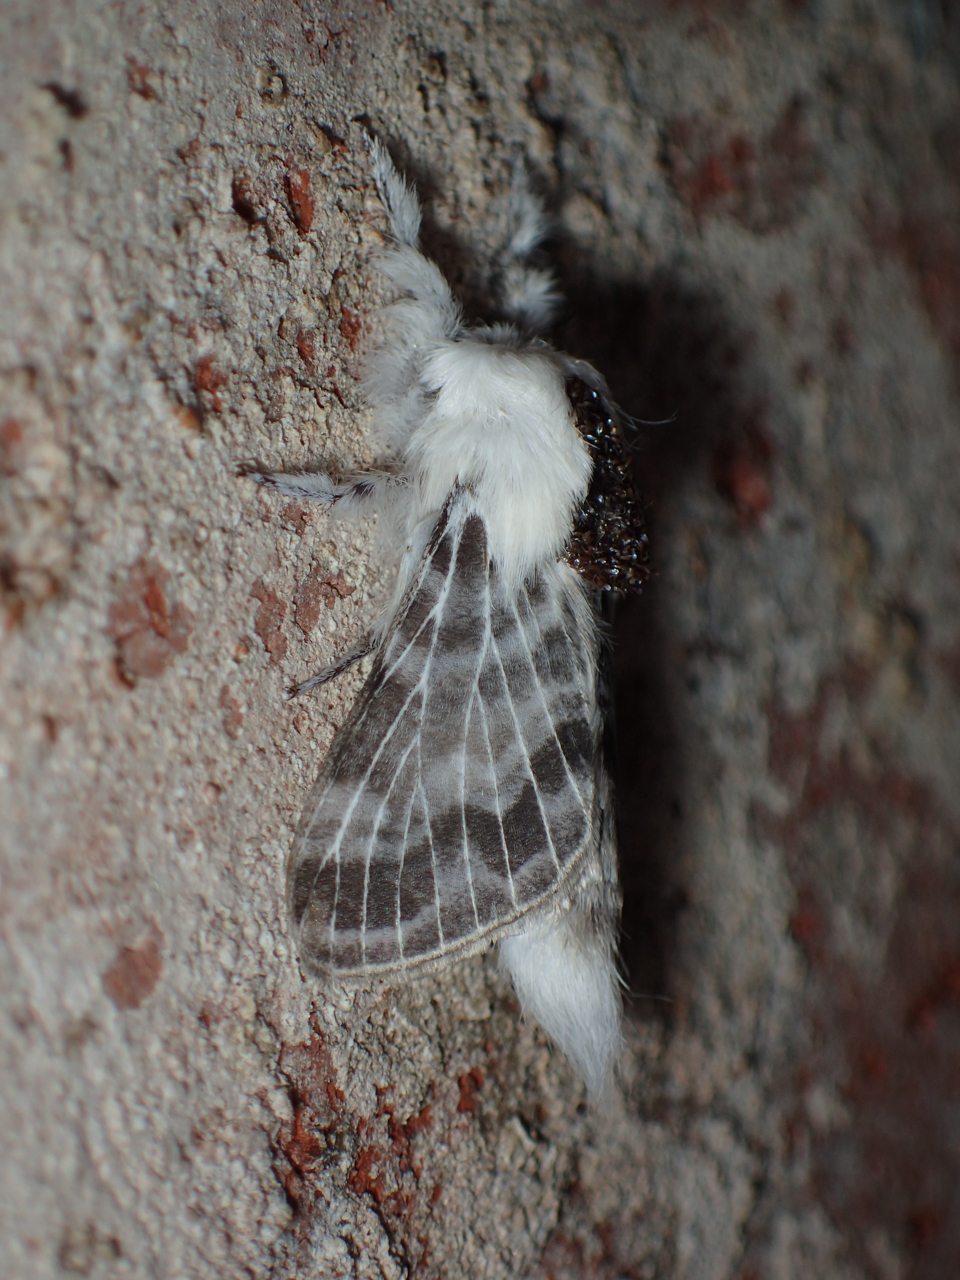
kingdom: Animalia
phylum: Arthropoda
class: Insecta
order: Lepidoptera
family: Lasiocampidae
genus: Tolype
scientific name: Tolype notialis
